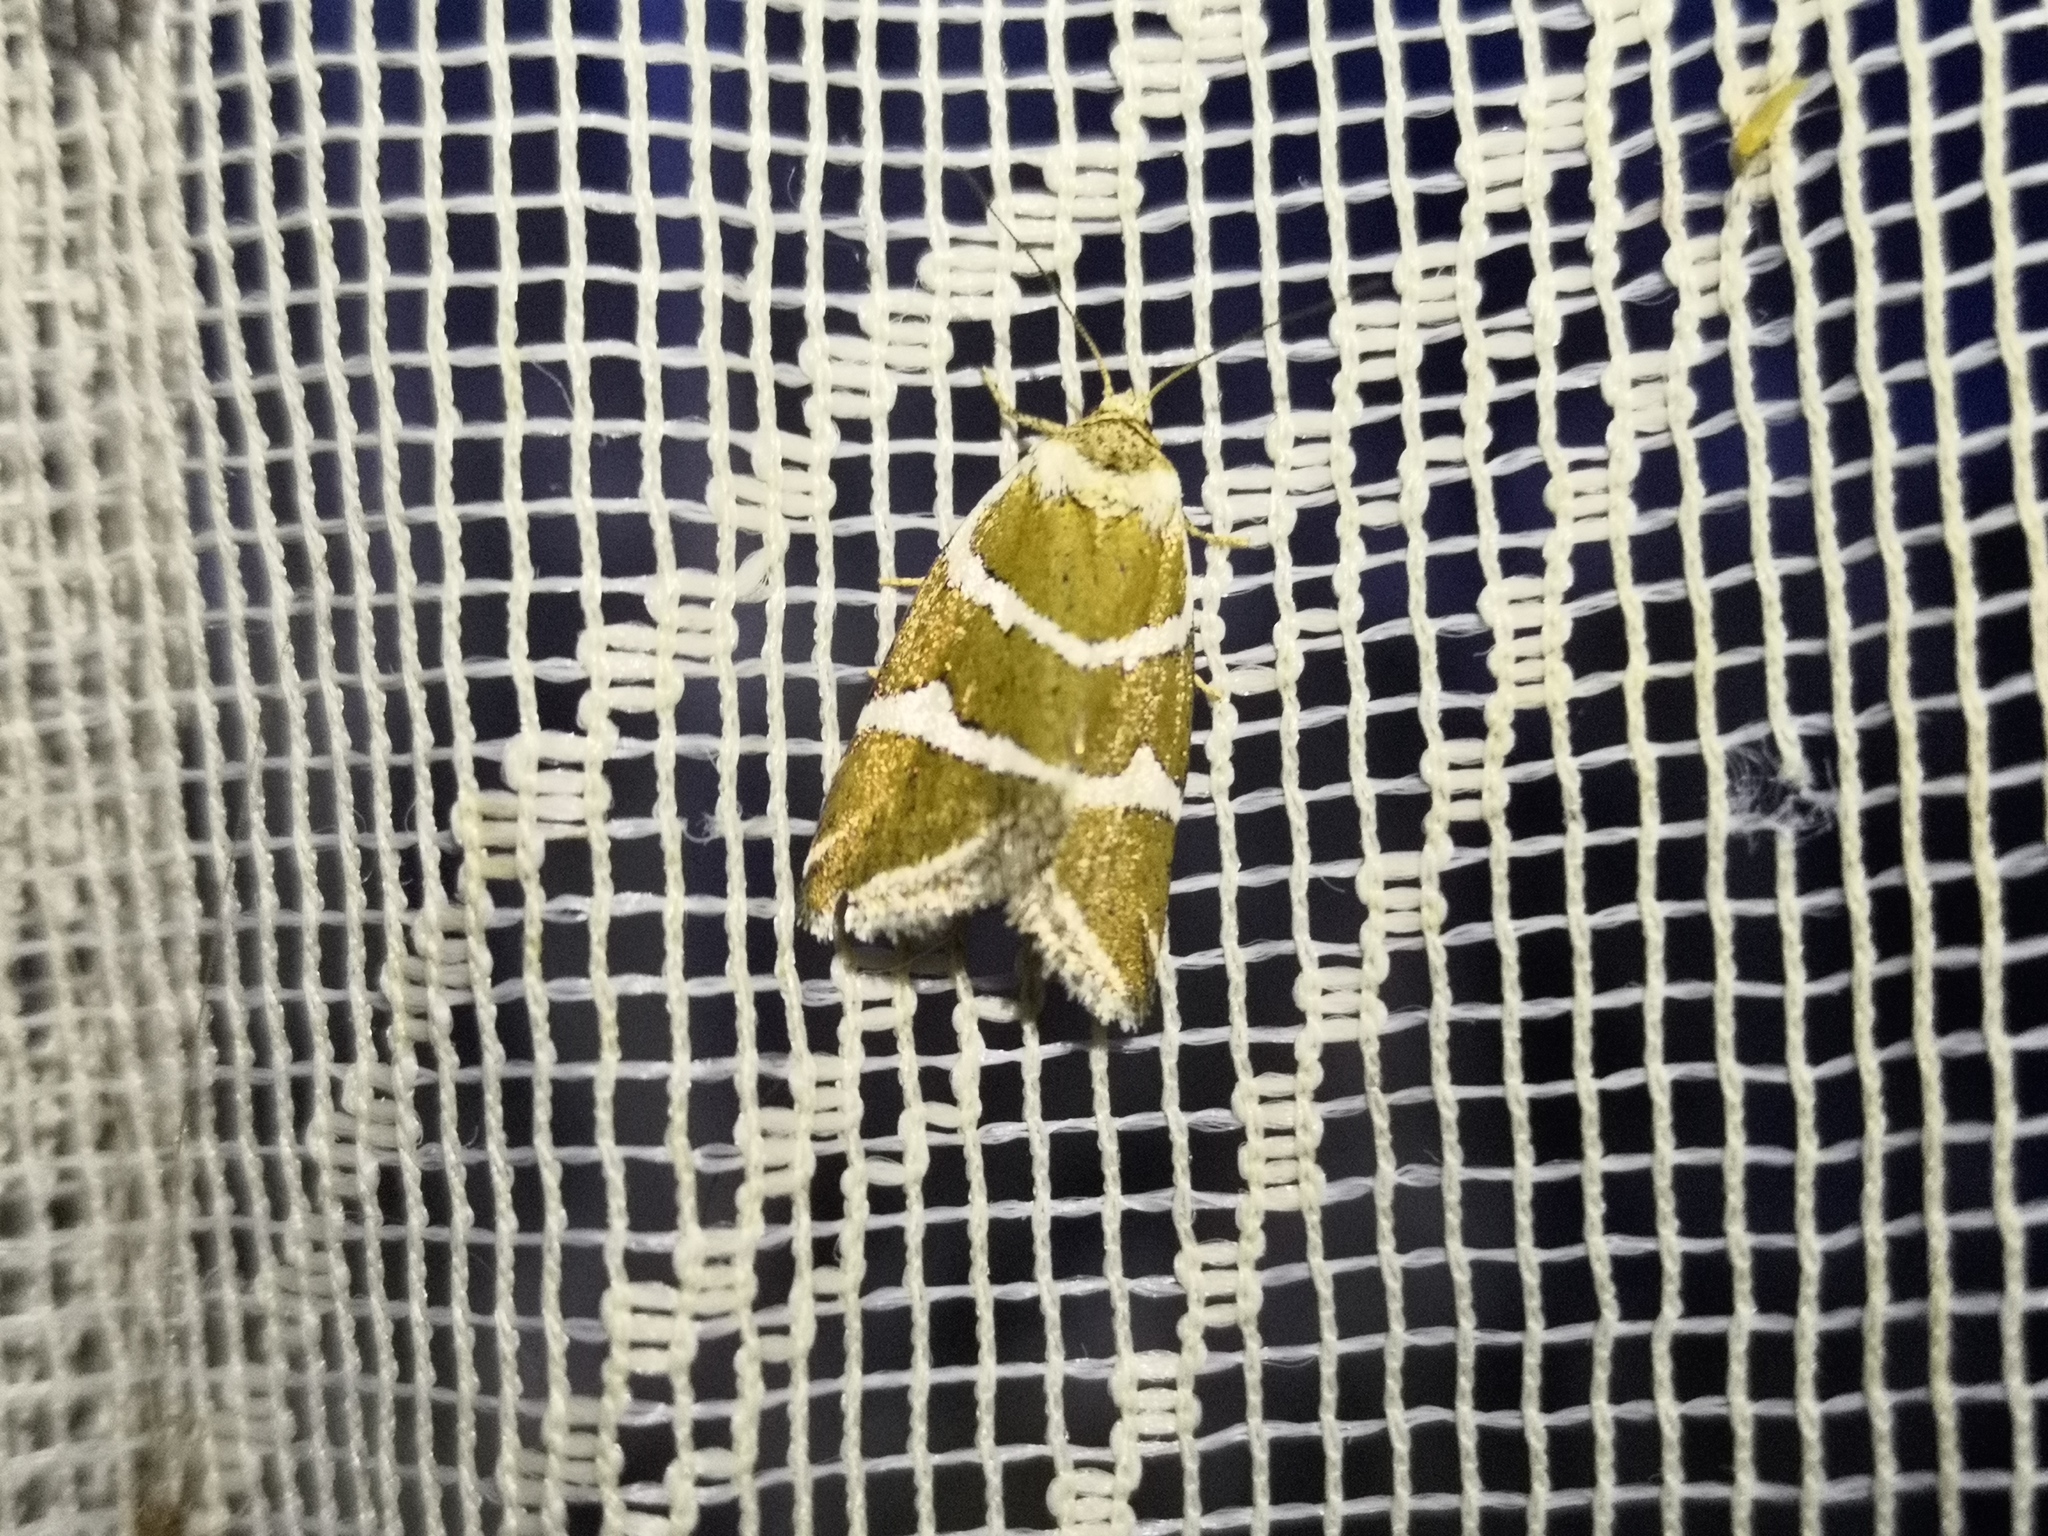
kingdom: Animalia
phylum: Arthropoda
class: Insecta
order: Lepidoptera
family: Noctuidae
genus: Deltote
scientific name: Deltote bankiana
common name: Silver barred
